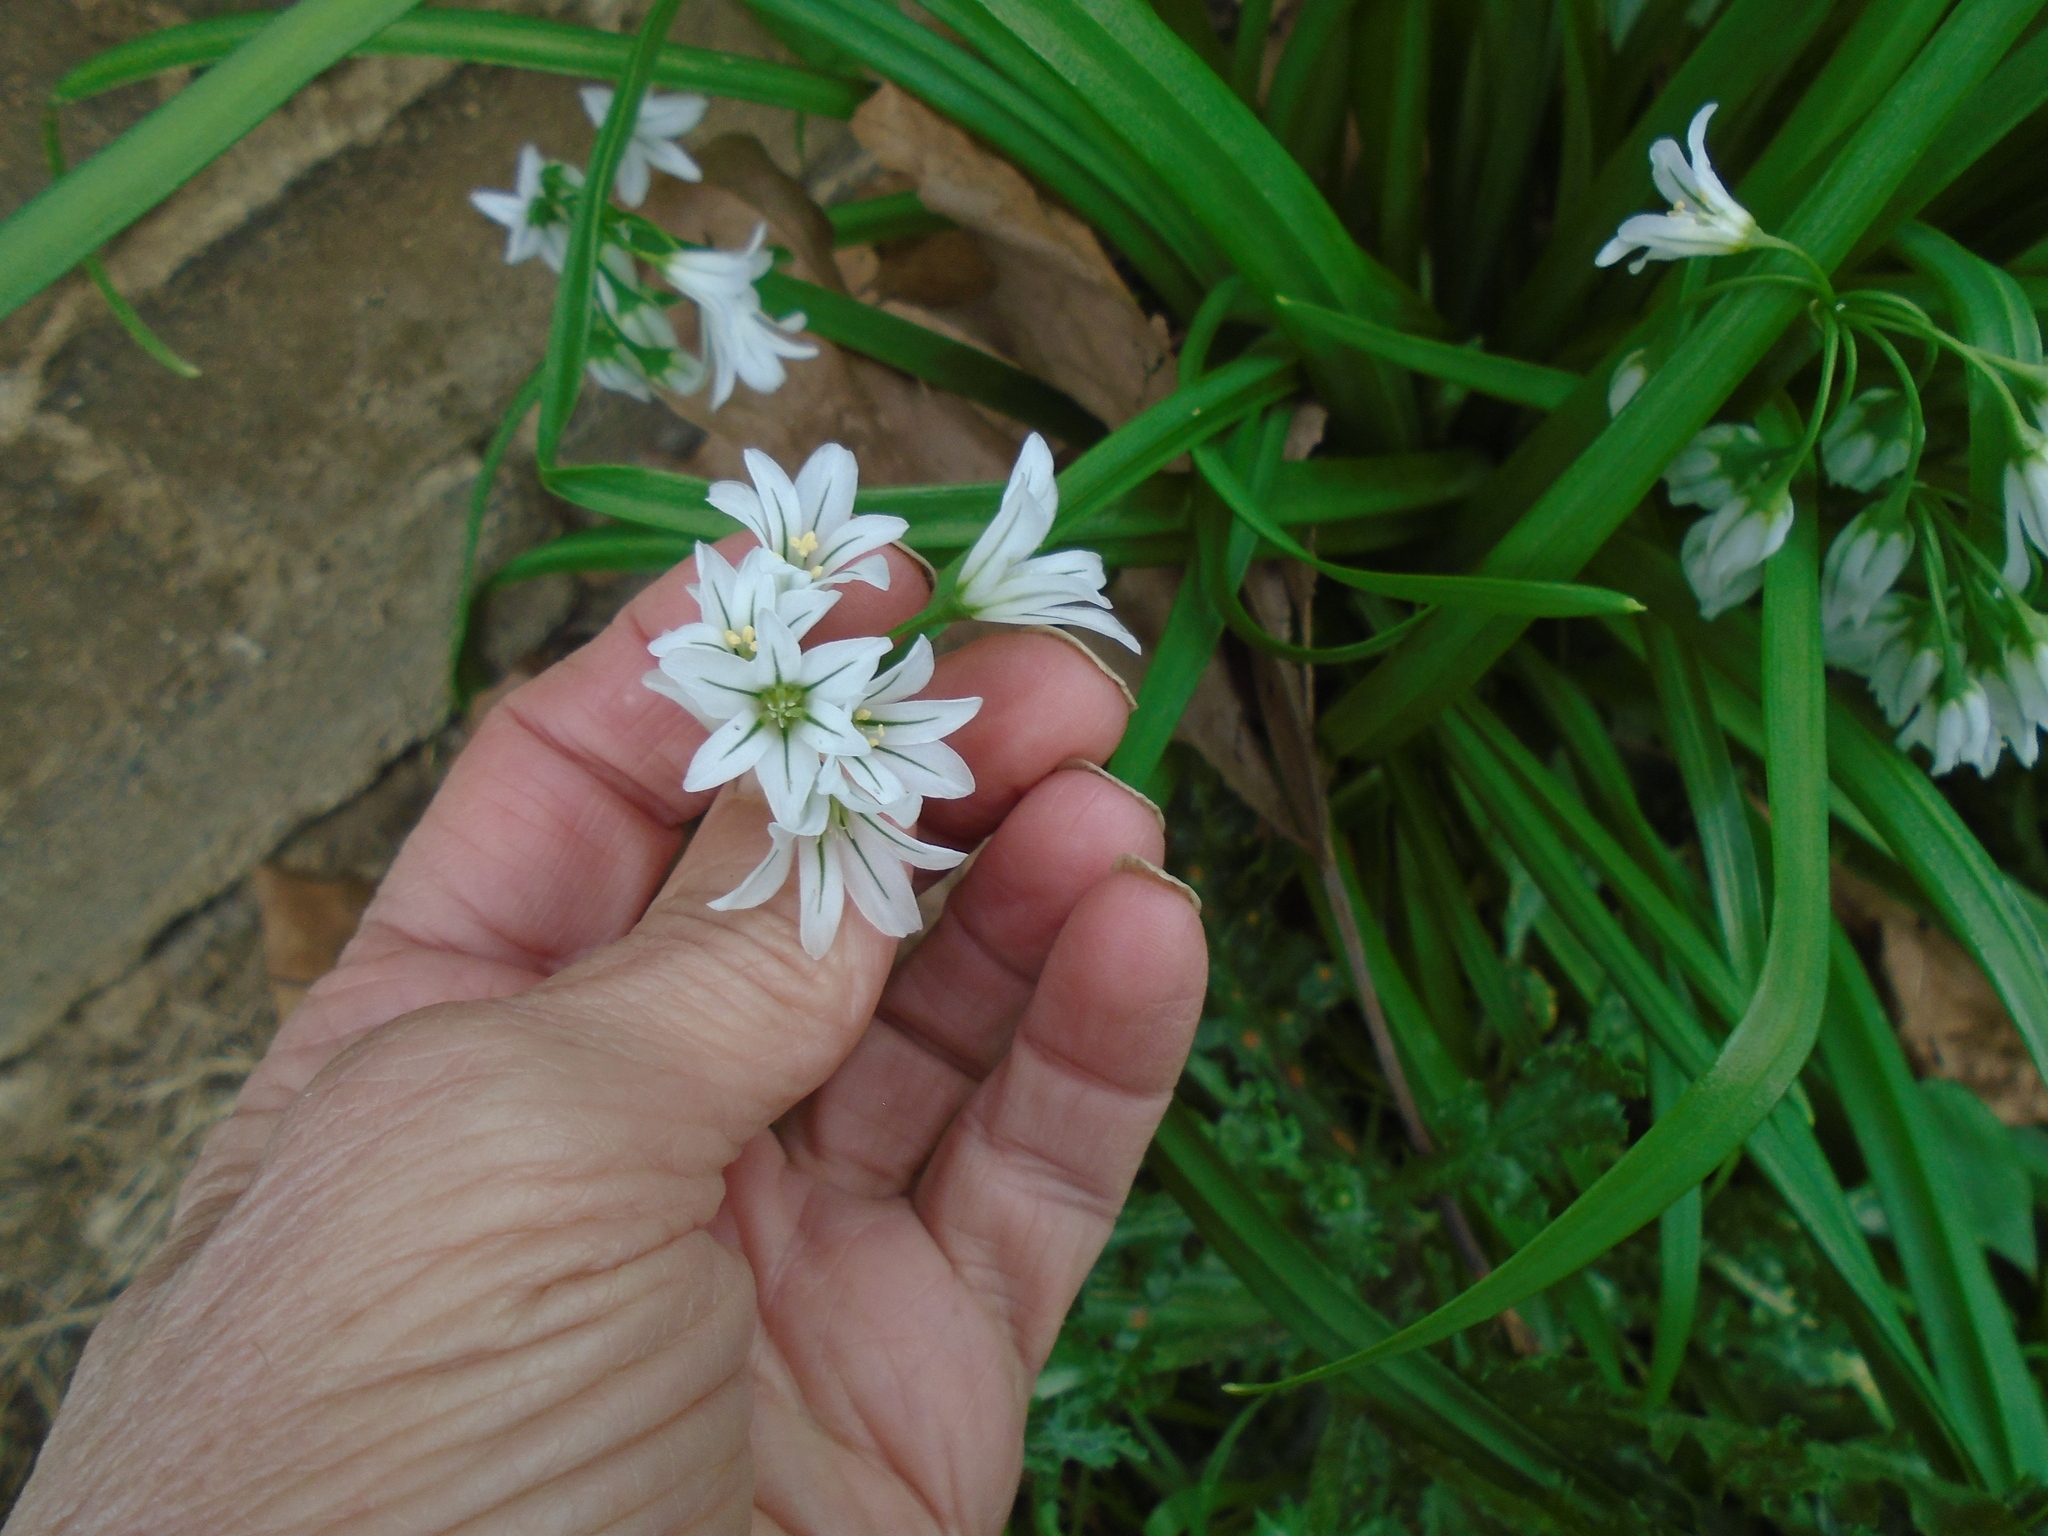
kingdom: Plantae
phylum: Tracheophyta
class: Liliopsida
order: Asparagales
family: Amaryllidaceae
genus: Allium
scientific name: Allium triquetrum
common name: Three-cornered garlic
